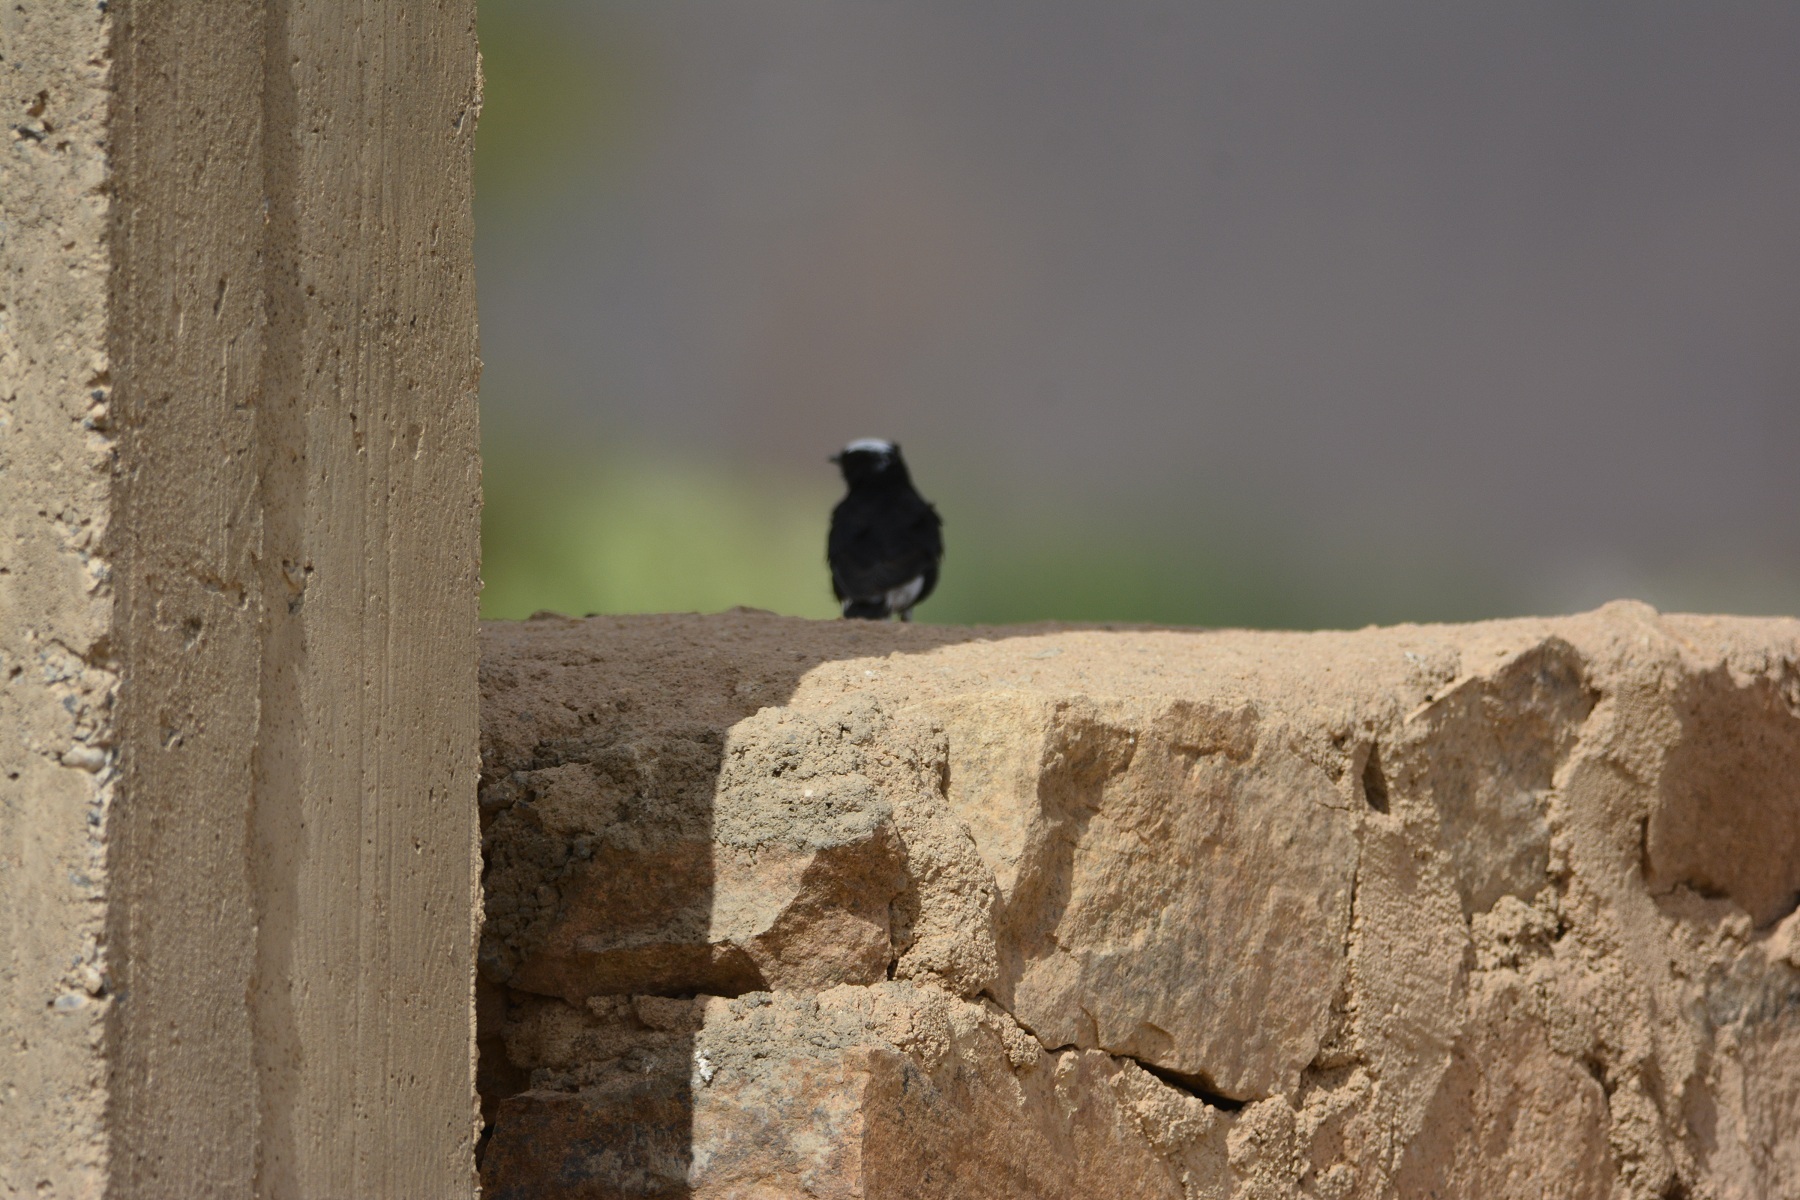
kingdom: Animalia
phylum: Chordata
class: Aves
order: Passeriformes
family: Muscicapidae
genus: Oenanthe
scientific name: Oenanthe leucopyga
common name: White-crowned wheatear
